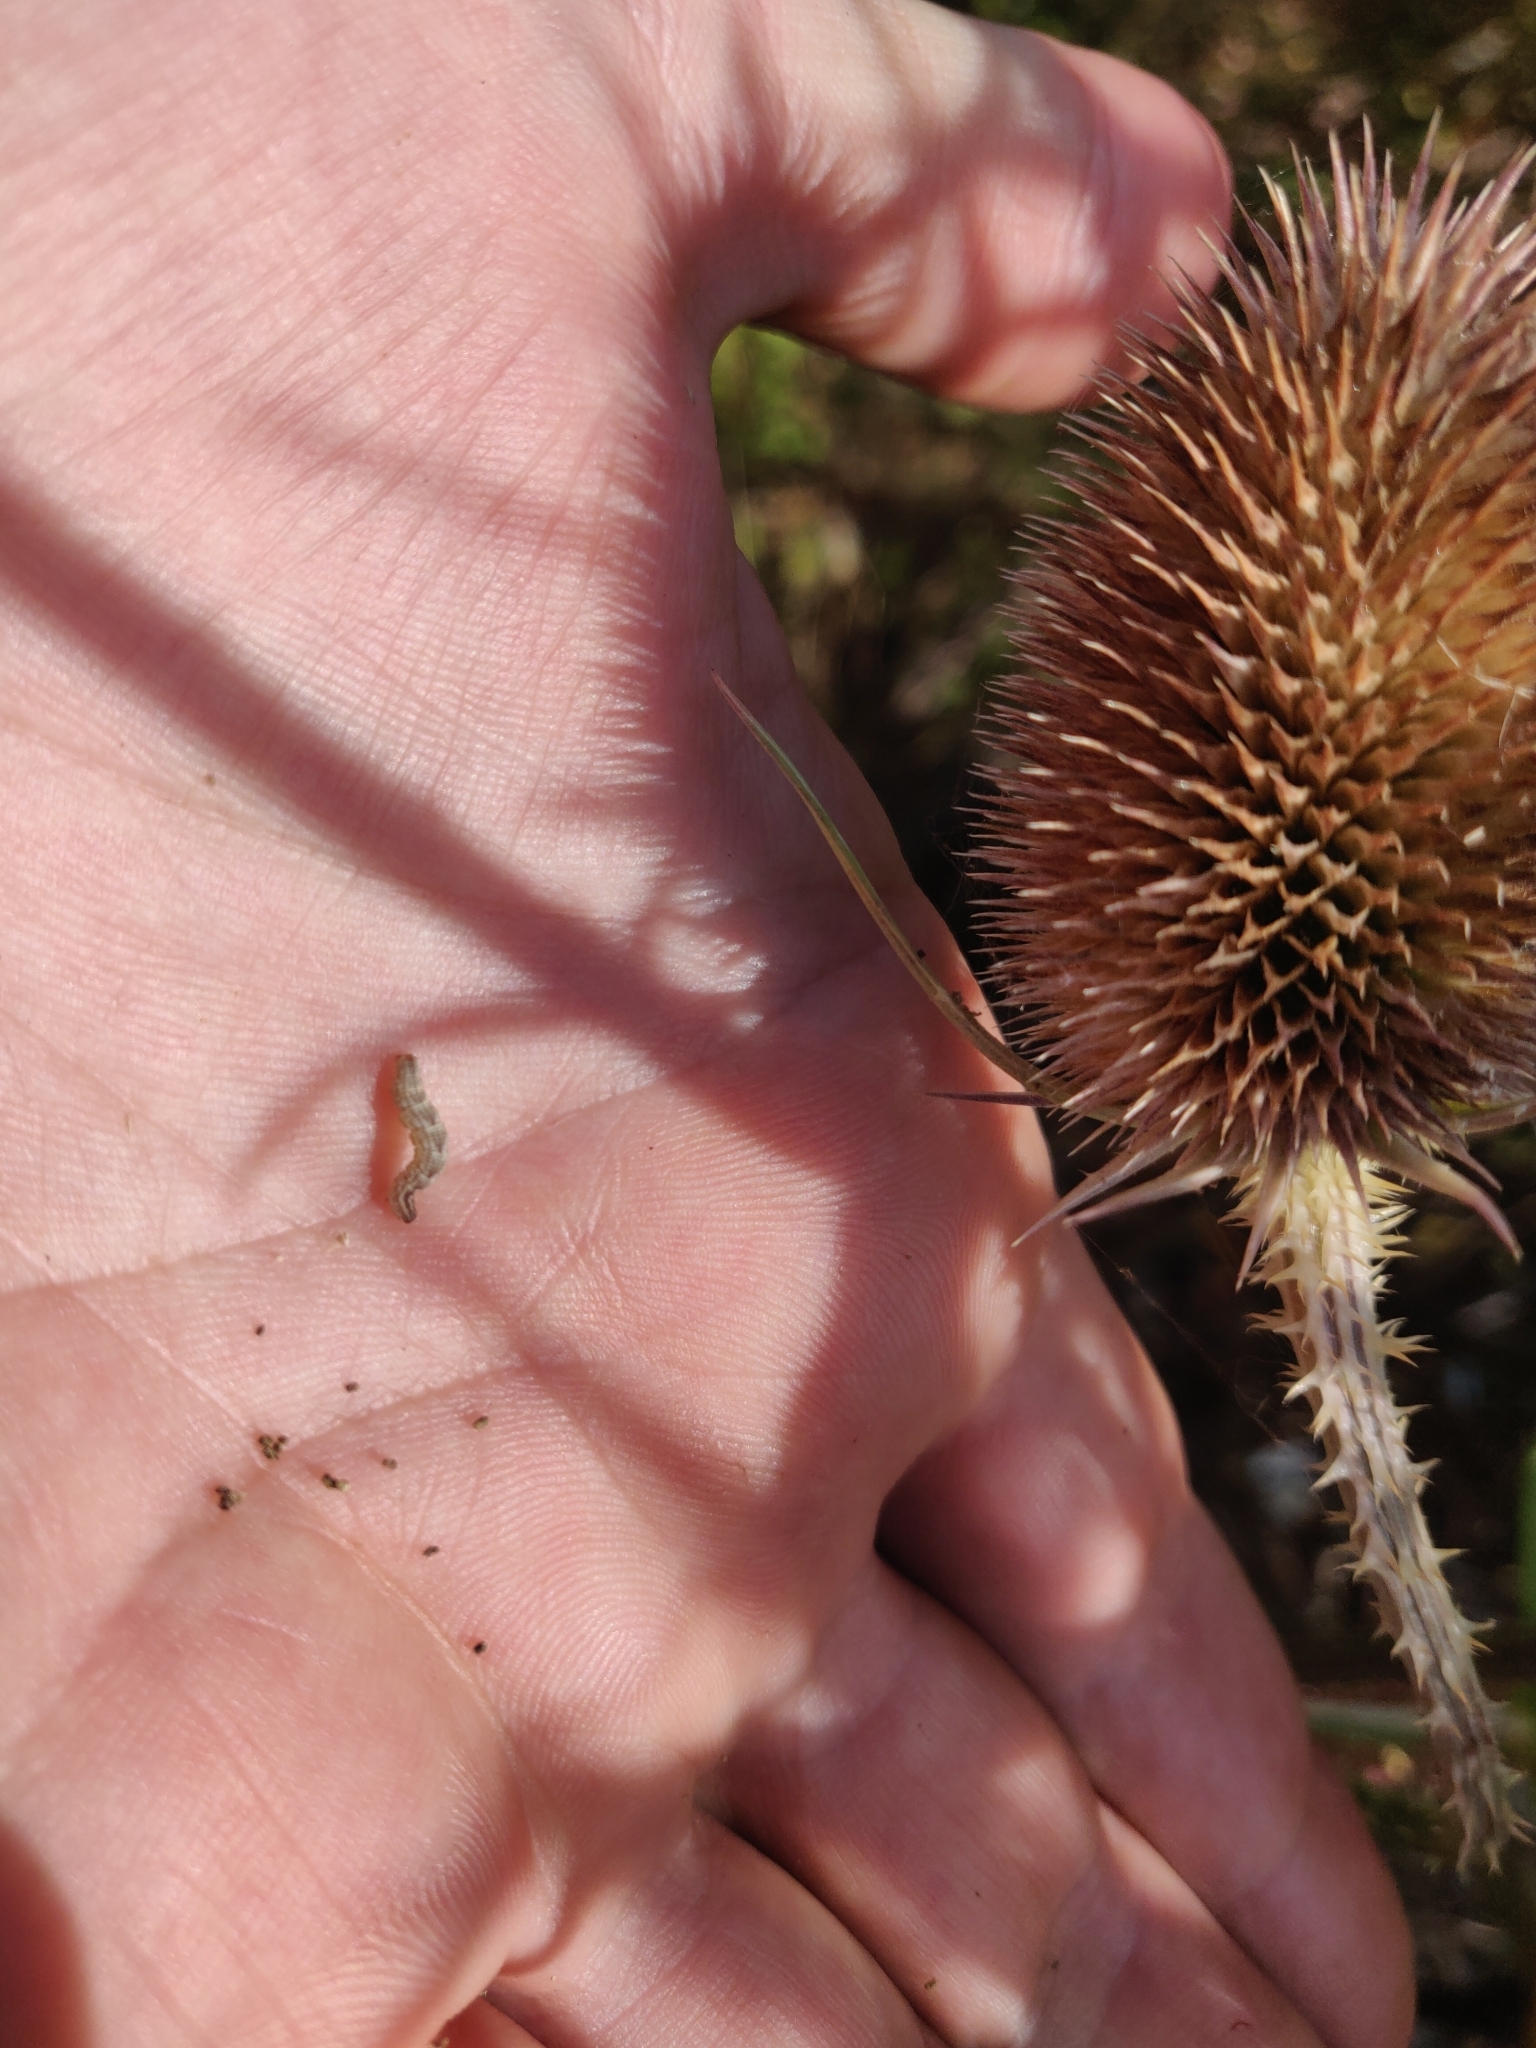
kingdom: Plantae
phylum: Tracheophyta
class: Magnoliopsida
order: Dipsacales
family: Caprifoliaceae
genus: Dipsacus
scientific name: Dipsacus fullonum
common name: Teasel
